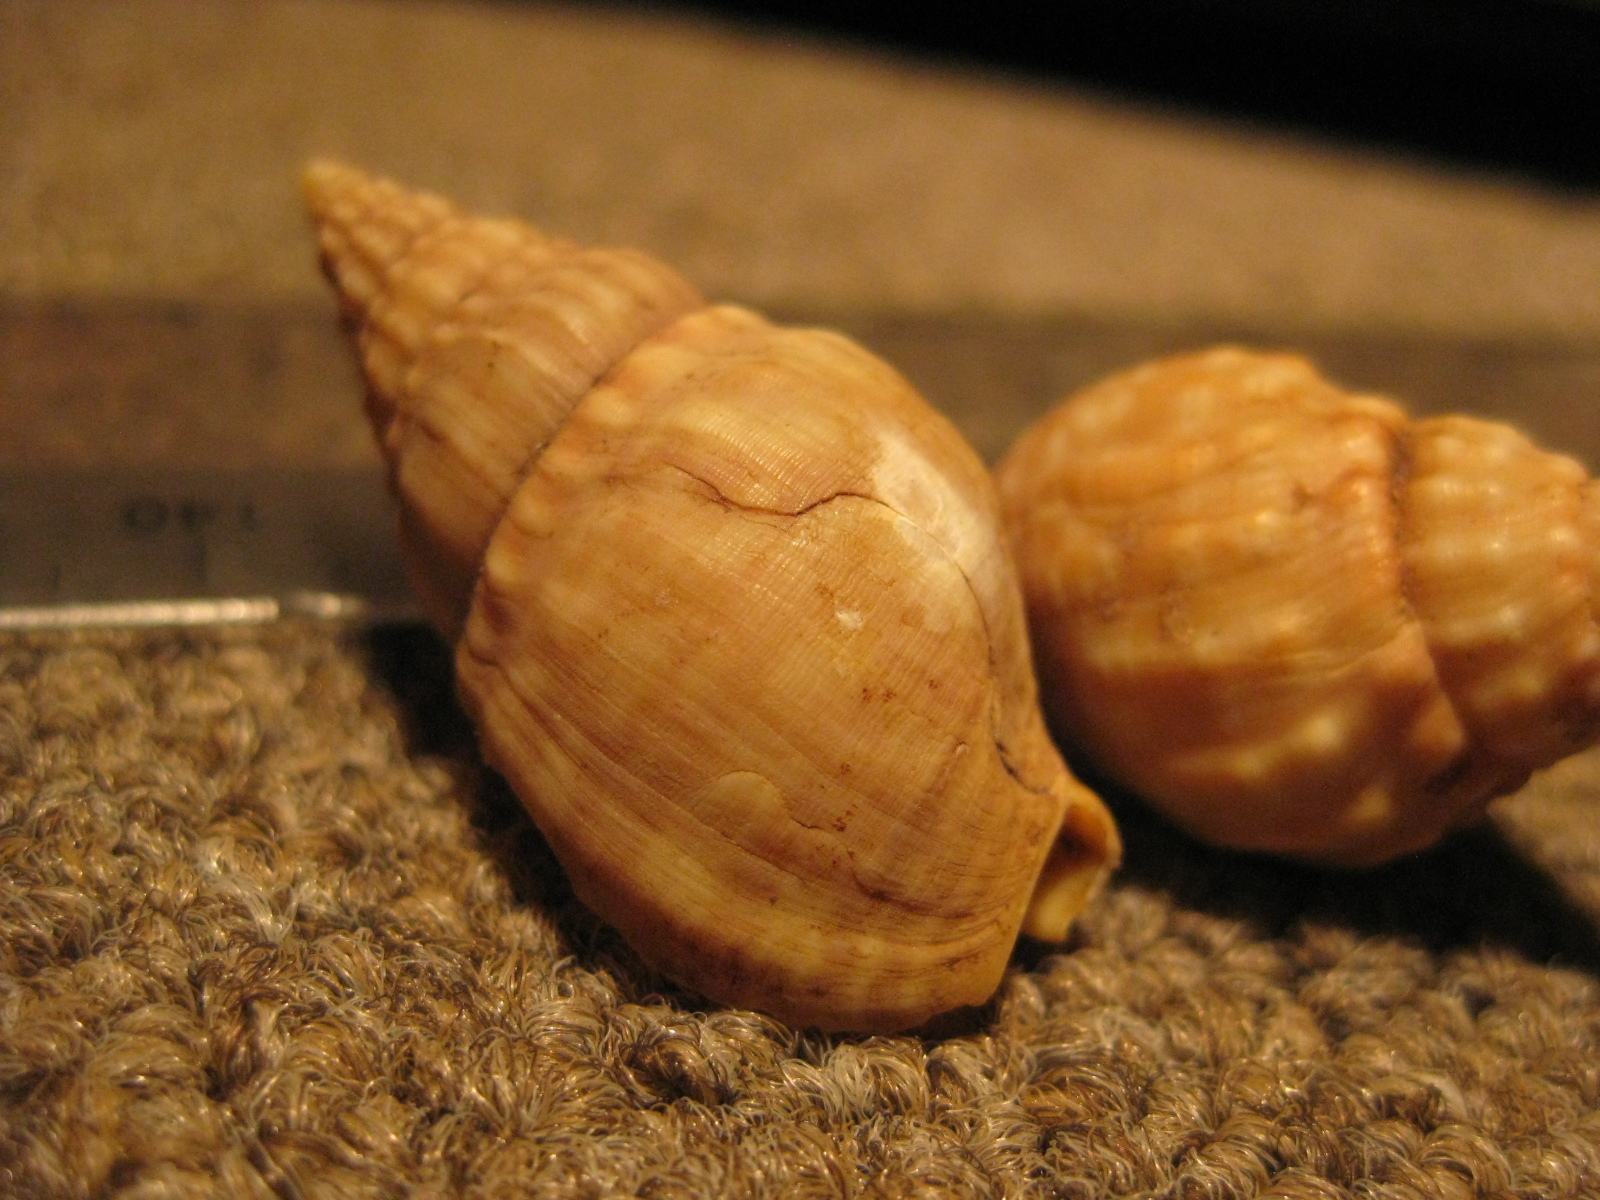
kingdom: Animalia
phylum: Mollusca
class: Gastropoda
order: Neogastropoda
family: Cominellidae
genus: Cominella
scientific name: Cominella nassoides
